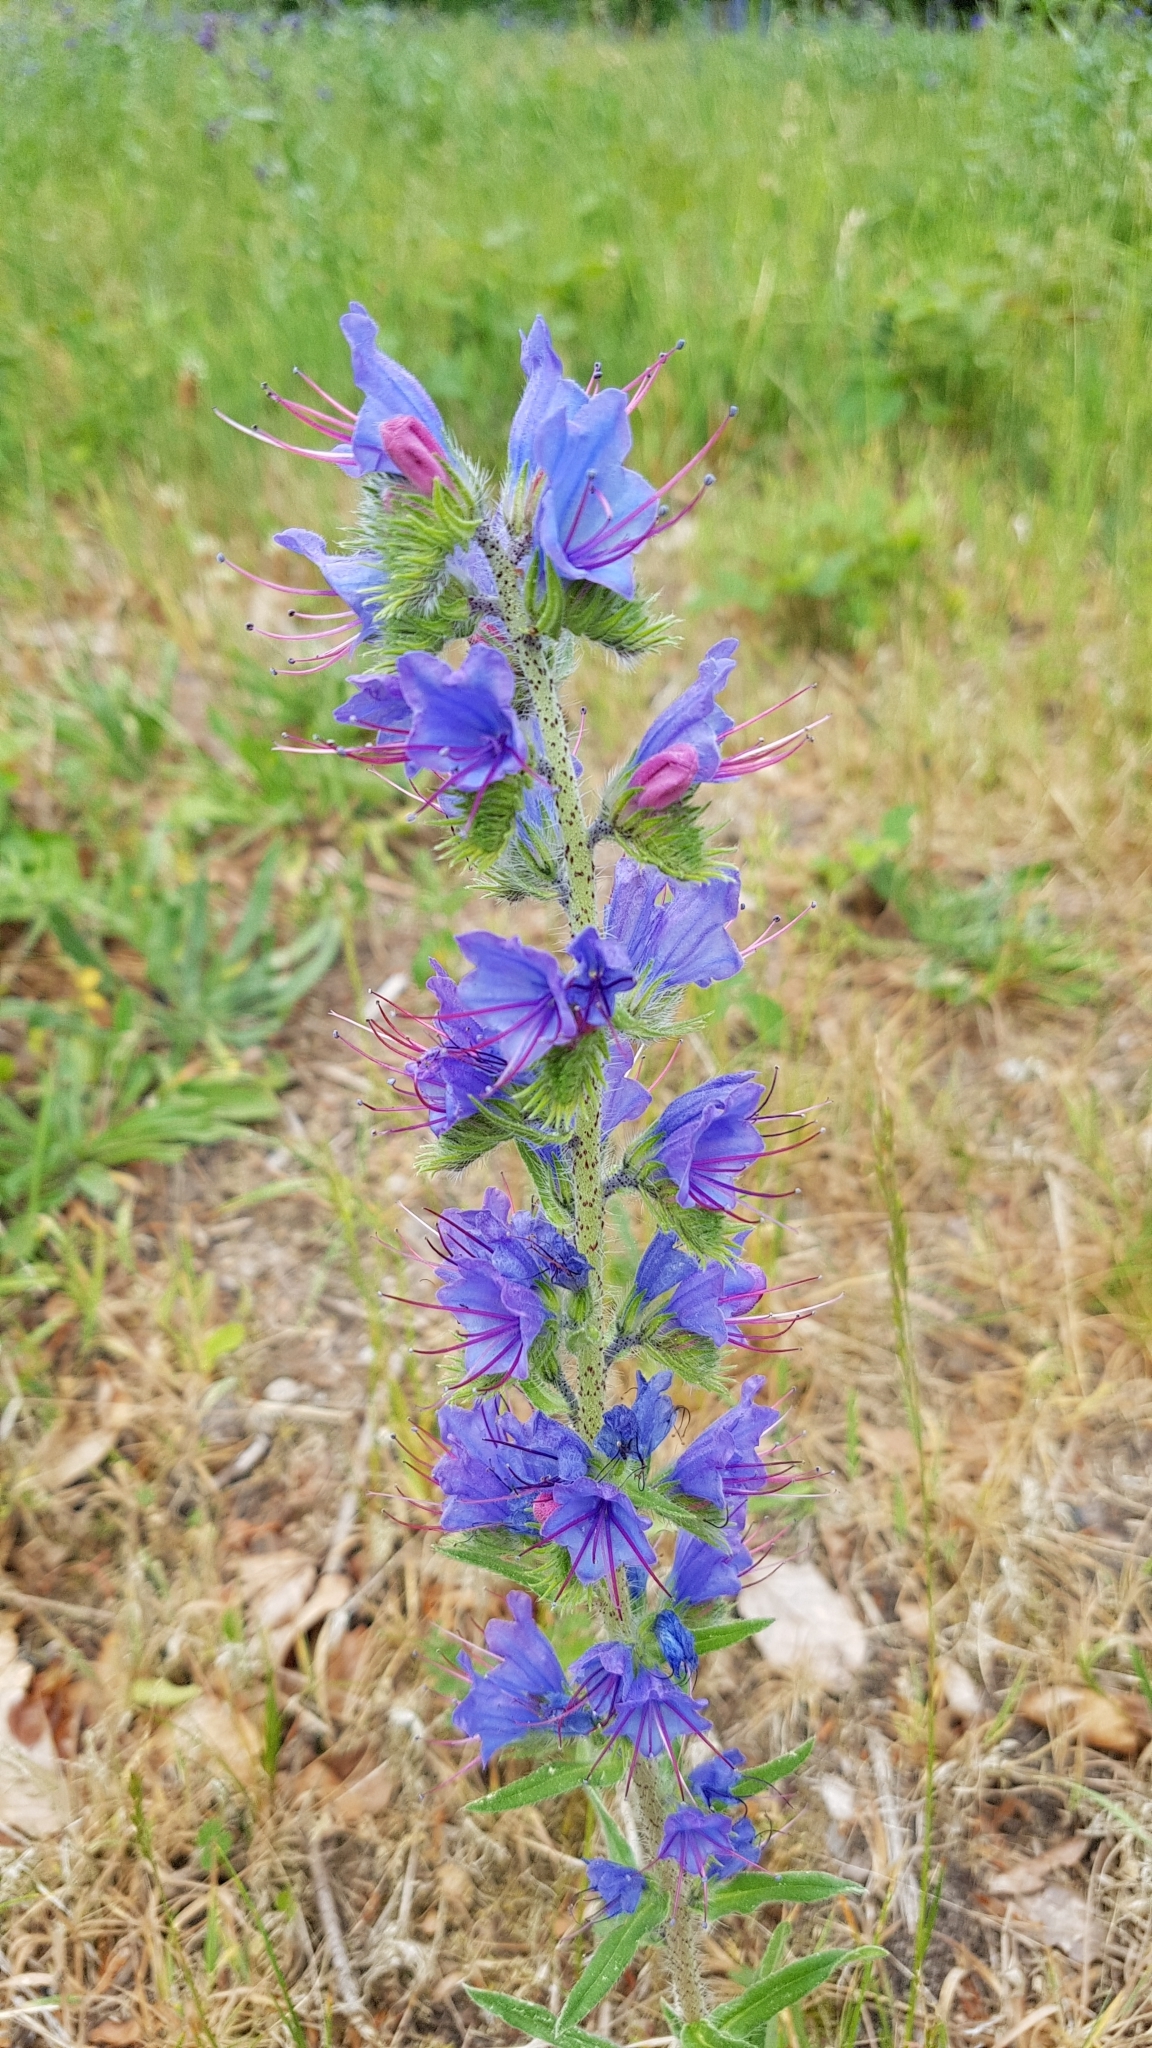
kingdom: Plantae
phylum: Tracheophyta
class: Magnoliopsida
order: Boraginales
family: Boraginaceae
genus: Echium
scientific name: Echium vulgare
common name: Common viper's bugloss
